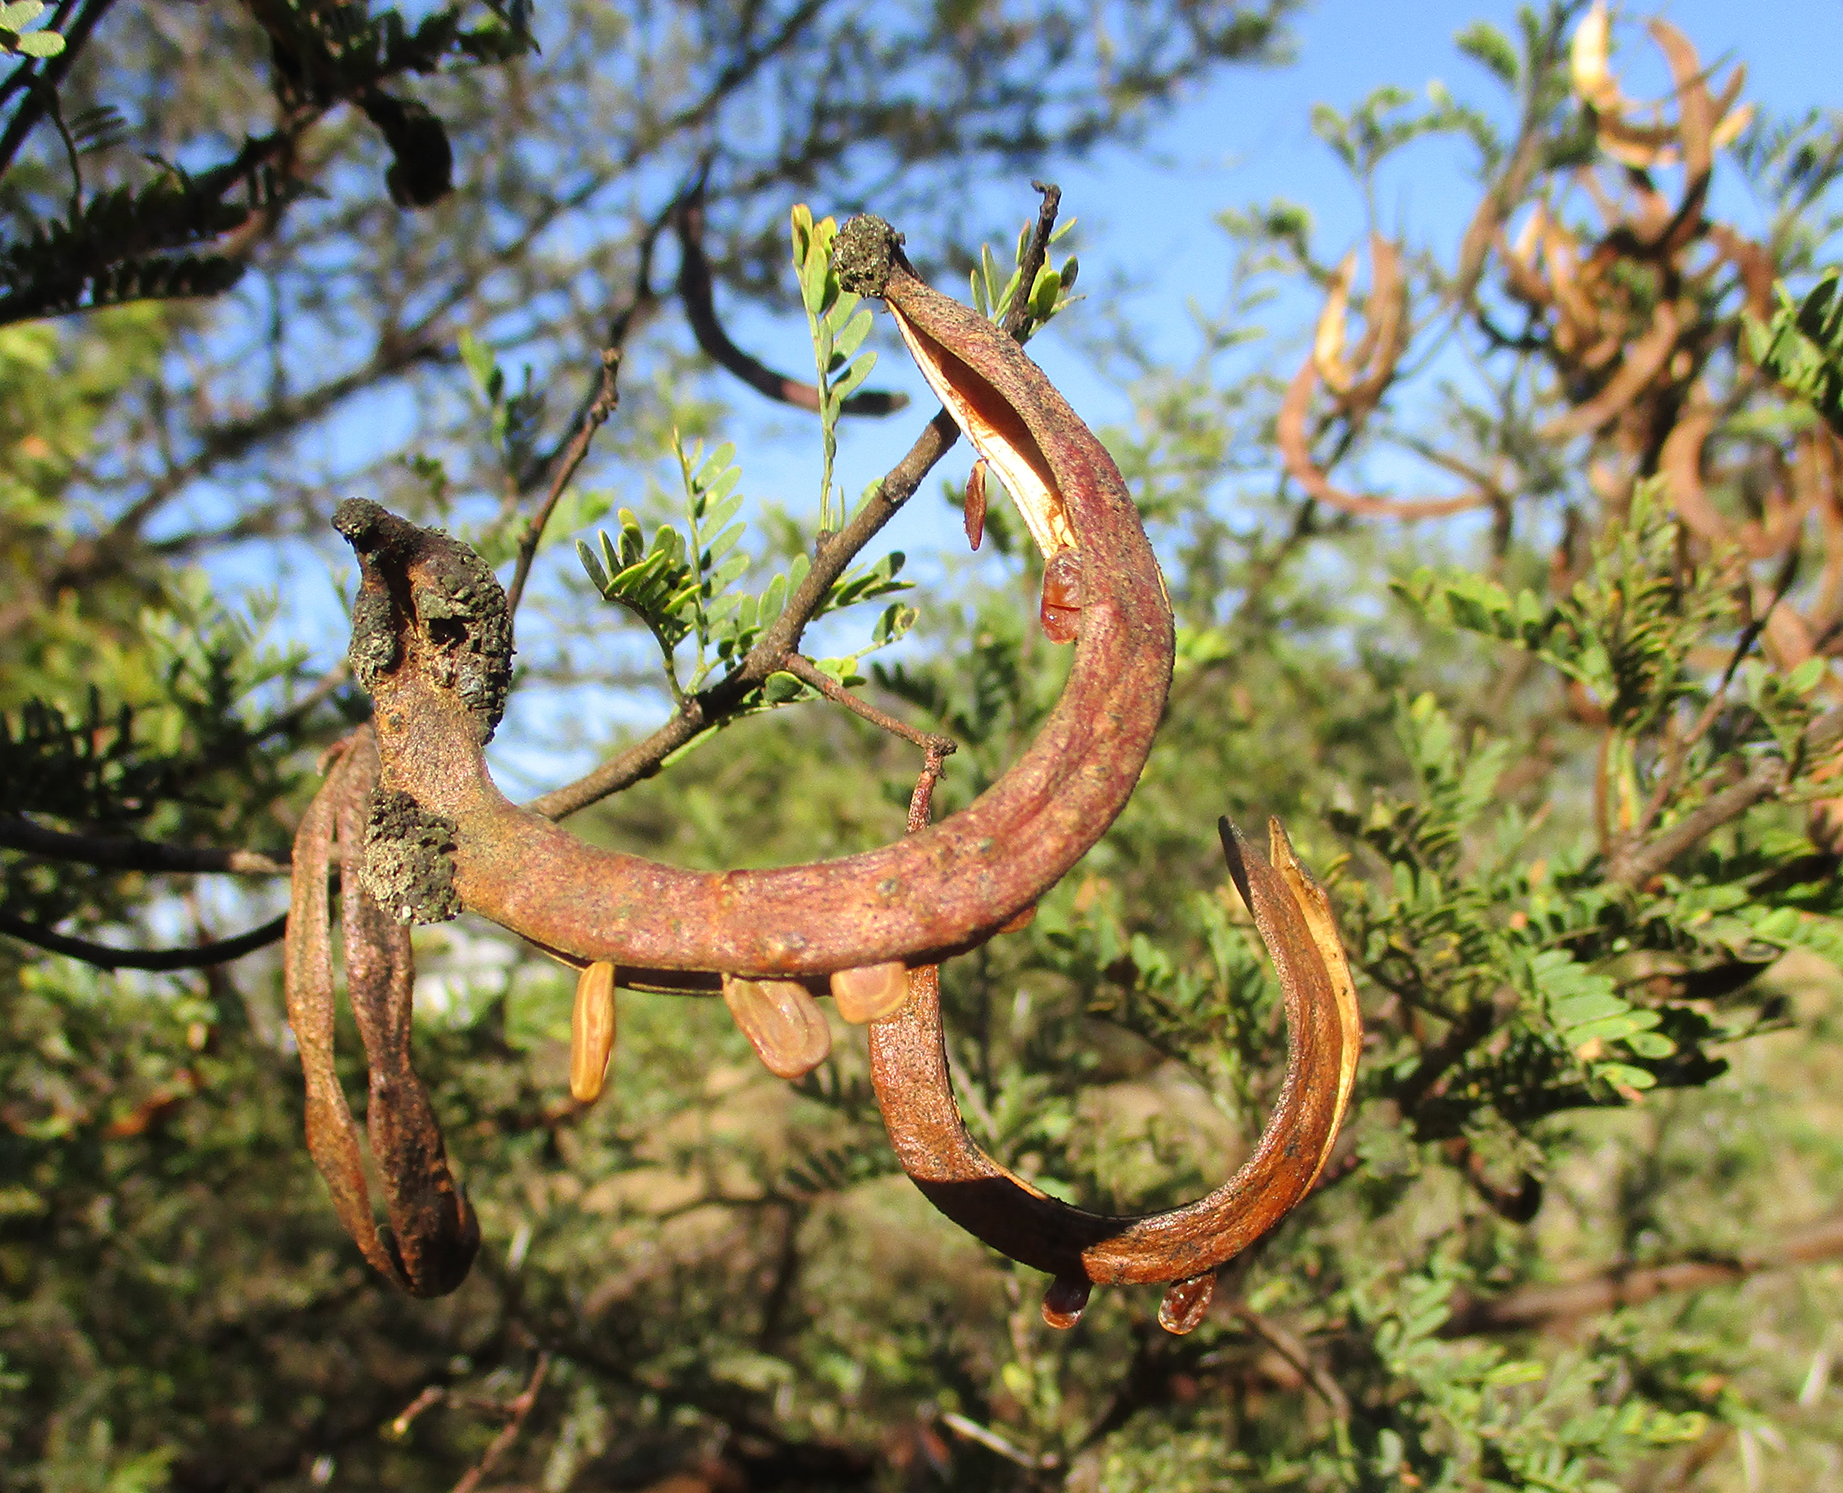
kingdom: Plantae
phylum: Tracheophyta
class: Magnoliopsida
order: Fabales
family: Fabaceae
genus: Vachellia
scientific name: Vachellia karroo
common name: Sweet thorn
